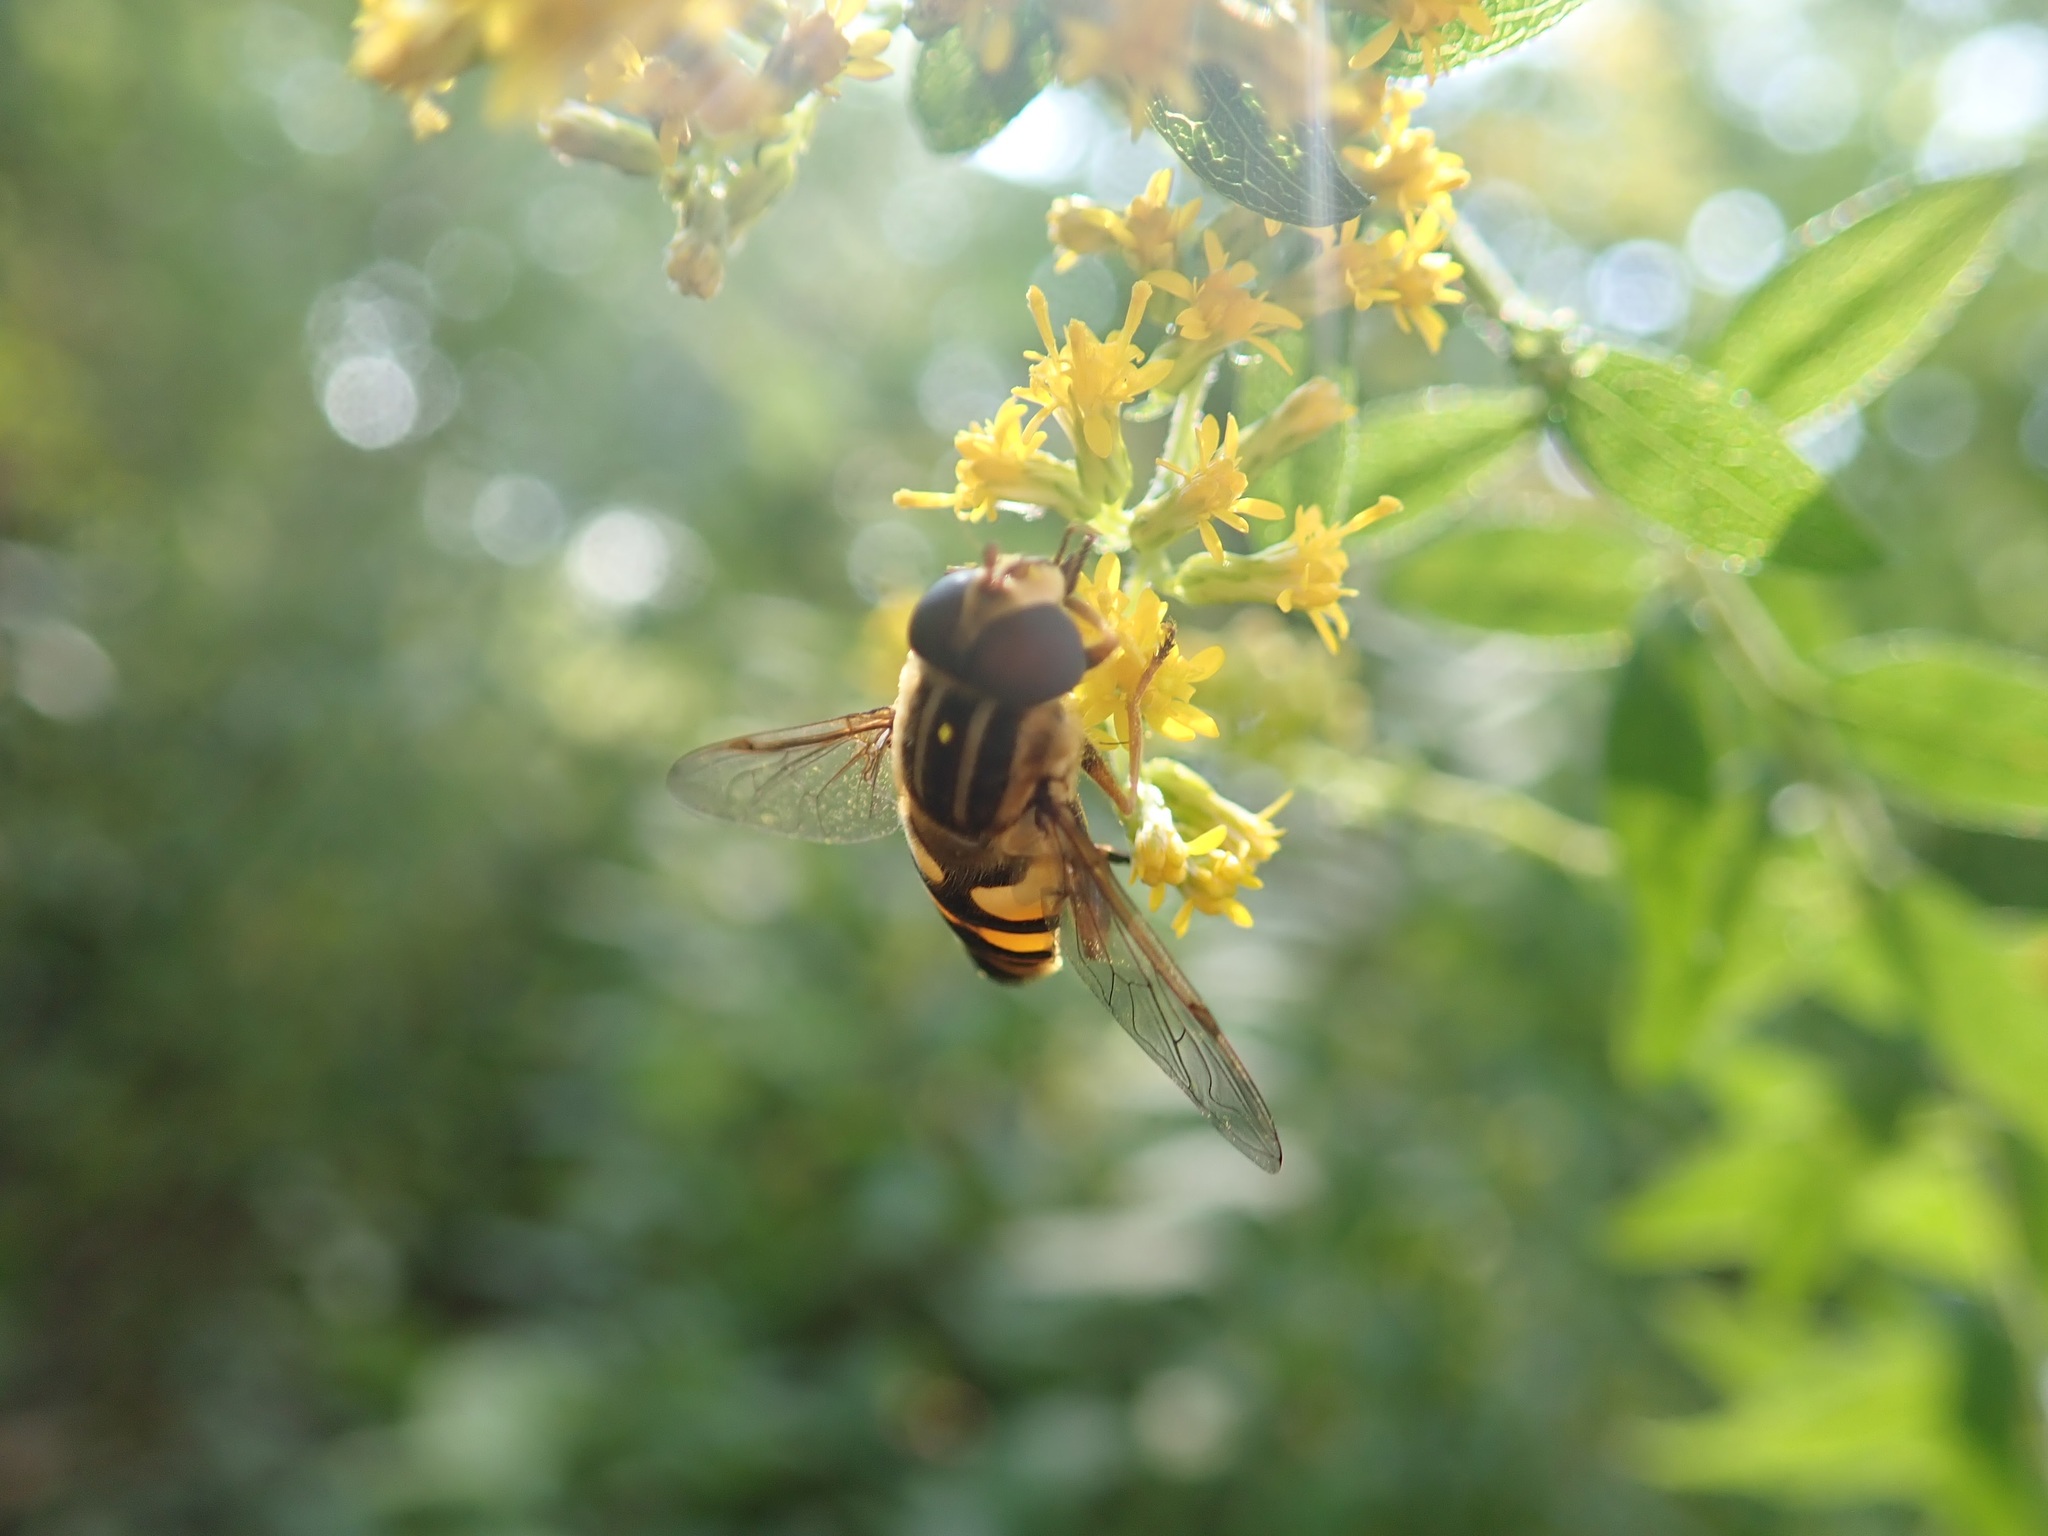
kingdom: Animalia
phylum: Arthropoda
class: Insecta
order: Diptera
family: Syrphidae
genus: Helophilus
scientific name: Helophilus fasciatus
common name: Narrow-headed marsh fly
